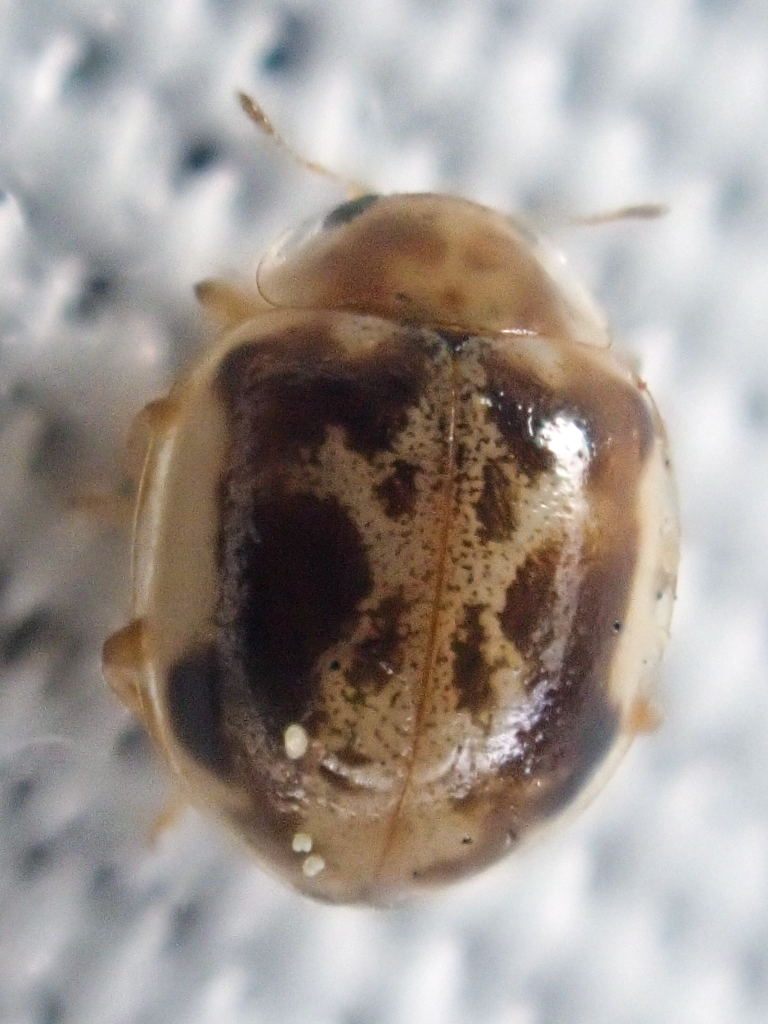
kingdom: Animalia
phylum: Arthropoda
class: Insecta
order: Coleoptera
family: Coccinellidae
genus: Psyllobora
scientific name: Psyllobora renifer
